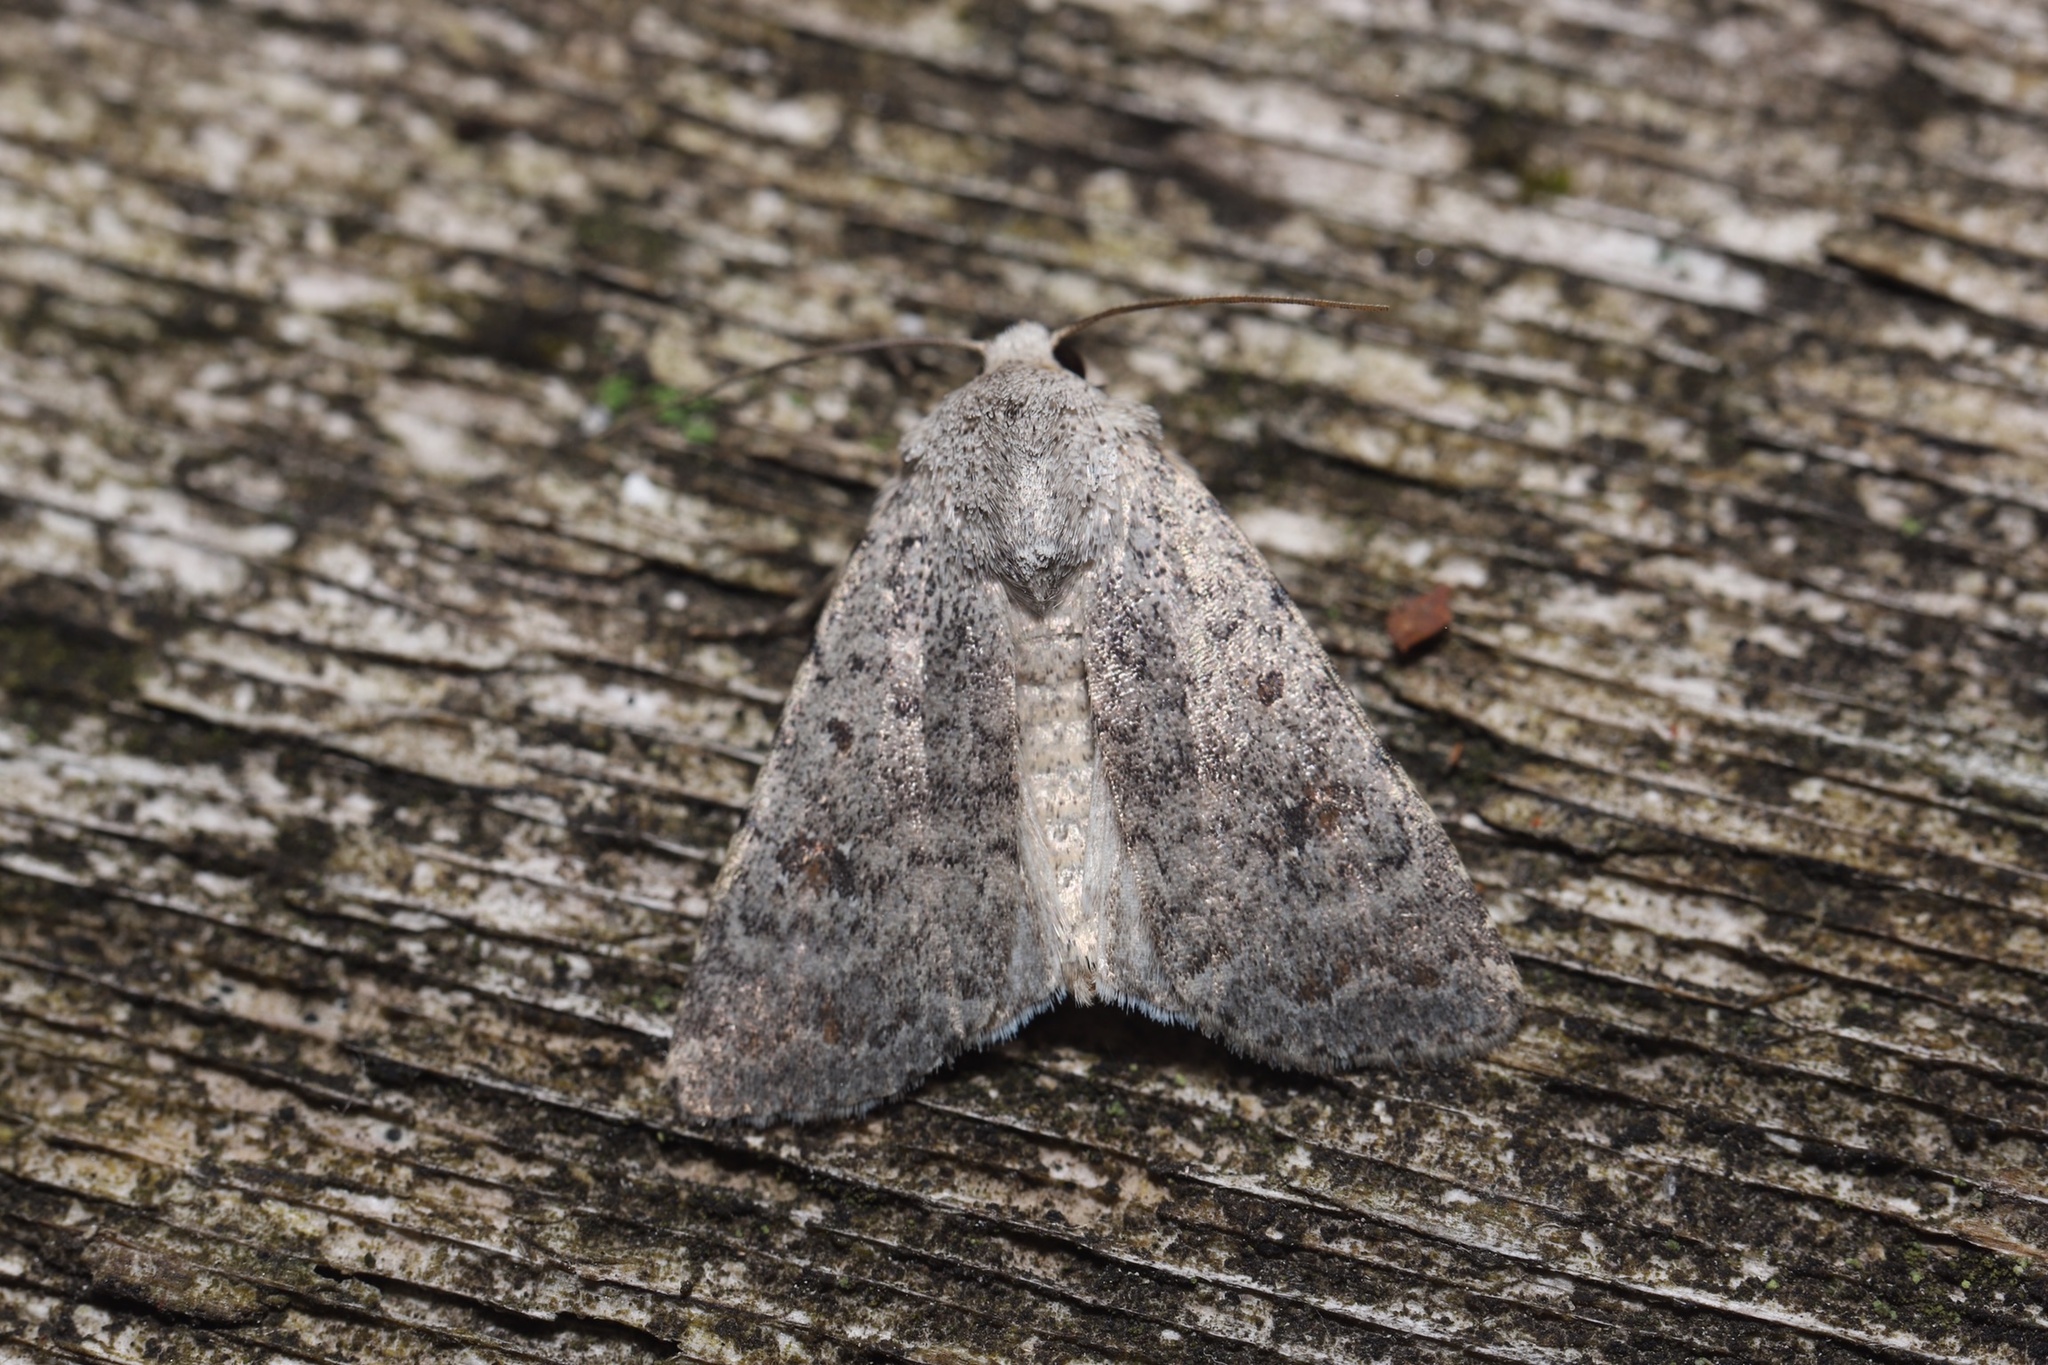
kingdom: Animalia
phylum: Arthropoda
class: Insecta
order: Lepidoptera
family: Noctuidae
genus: Caradrina
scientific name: Caradrina multifera
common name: Speckled rustic
